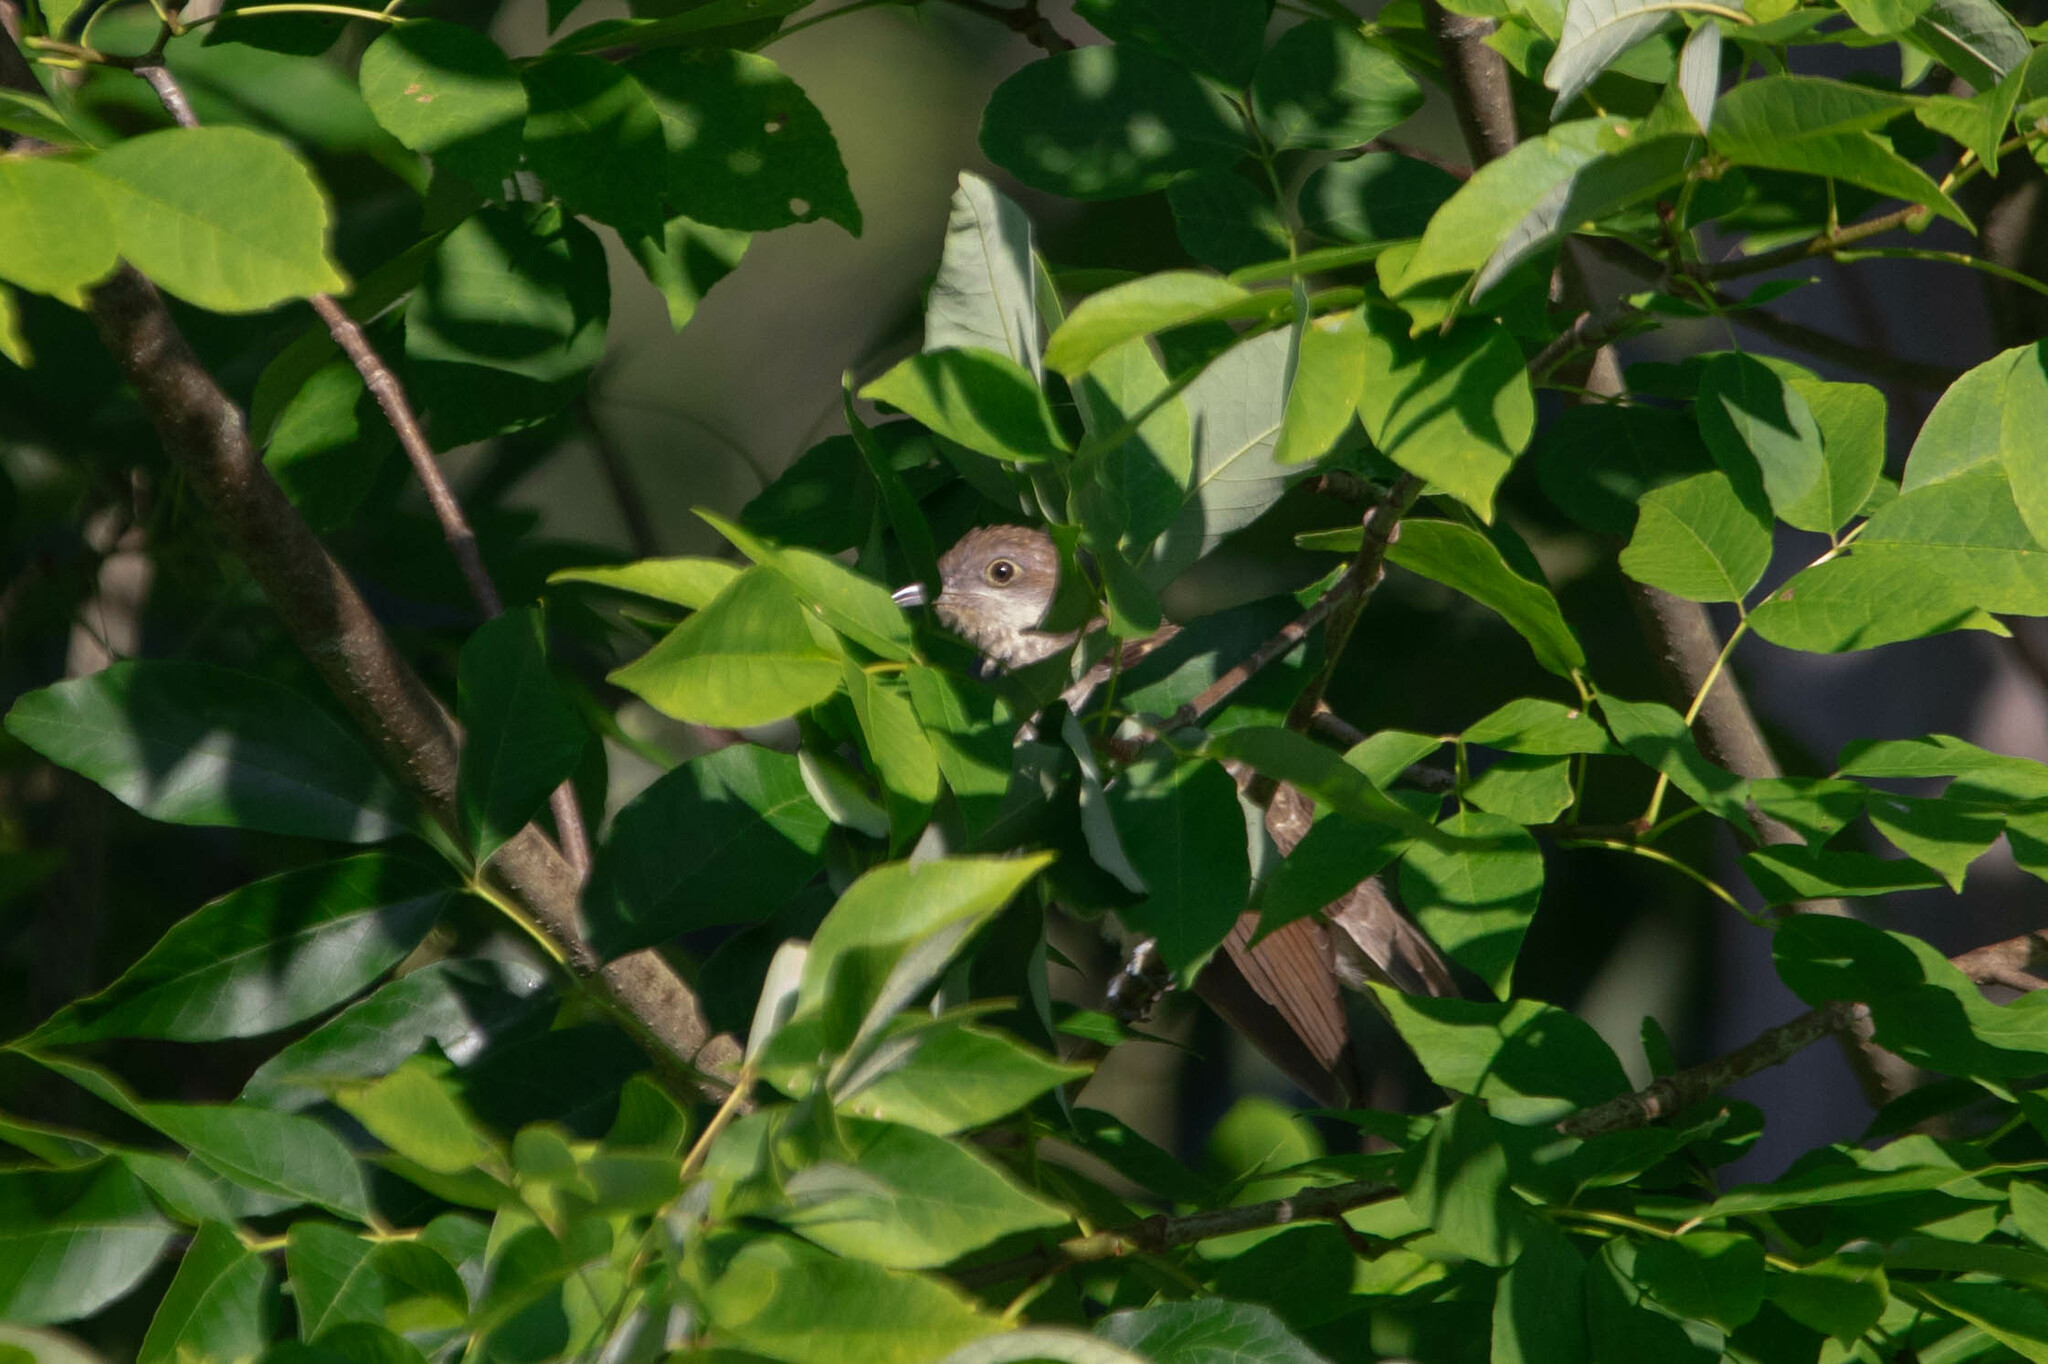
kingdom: Animalia
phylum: Chordata
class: Aves
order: Cuculiformes
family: Cuculidae
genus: Coccyzus
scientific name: Coccyzus erythropthalmus
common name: Black-billed cuckoo
